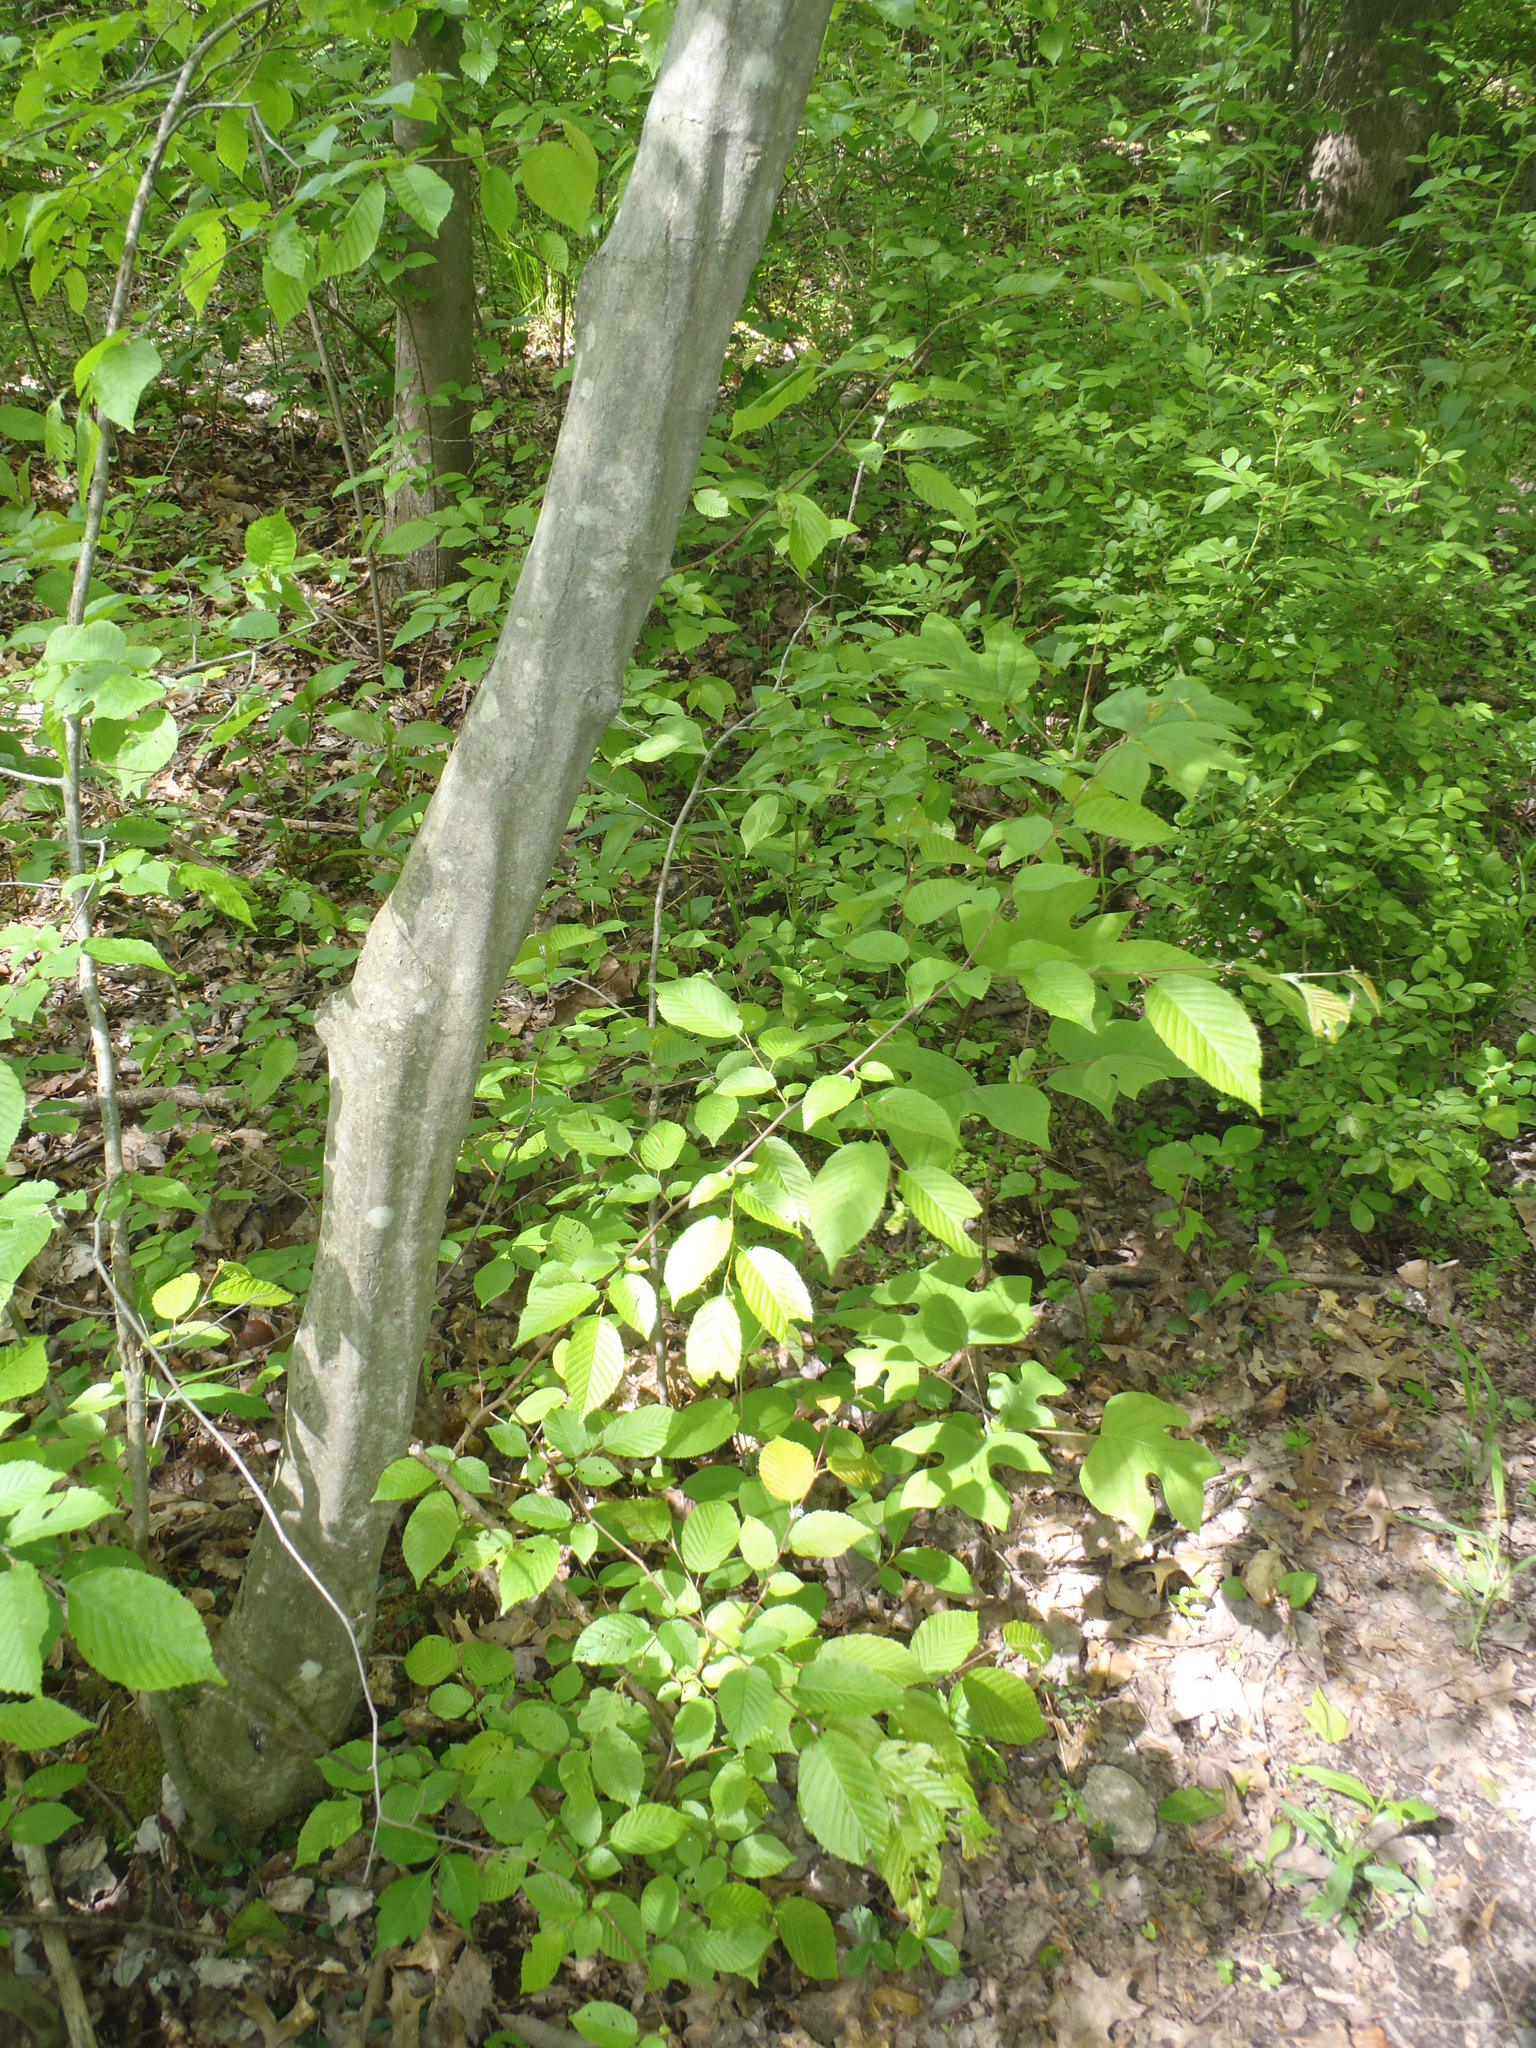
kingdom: Plantae
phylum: Tracheophyta
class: Magnoliopsida
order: Fagales
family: Betulaceae
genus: Carpinus
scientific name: Carpinus caroliniana
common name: American hornbeam
